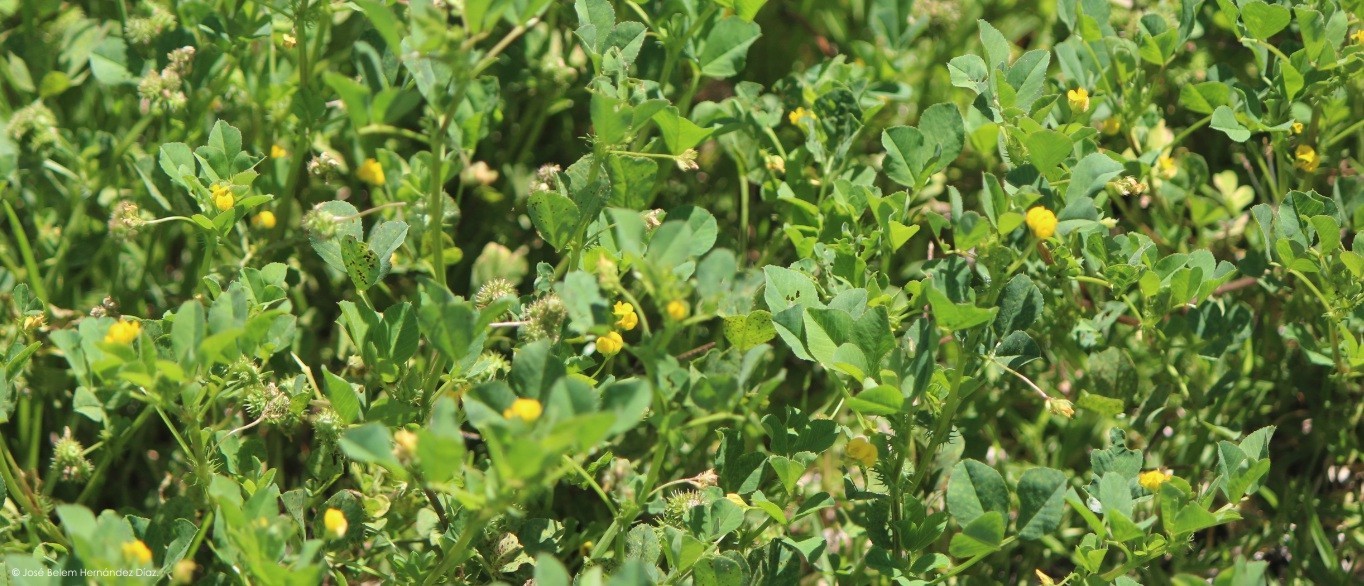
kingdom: Plantae
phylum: Tracheophyta
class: Magnoliopsida
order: Fabales
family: Fabaceae
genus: Medicago
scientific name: Medicago polymorpha
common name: Burclover
